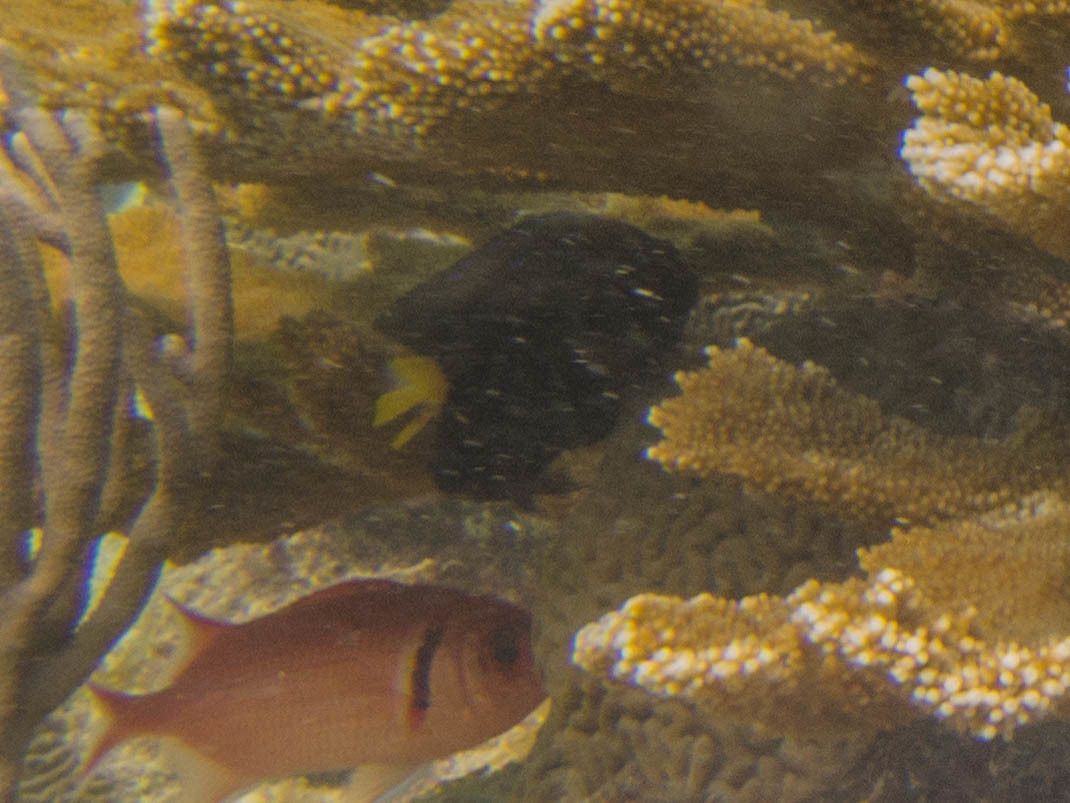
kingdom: Animalia
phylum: Chordata
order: Perciformes
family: Pomacentridae
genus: Microspathodon
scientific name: Microspathodon chrysurus
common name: Yellowtail damselfish
